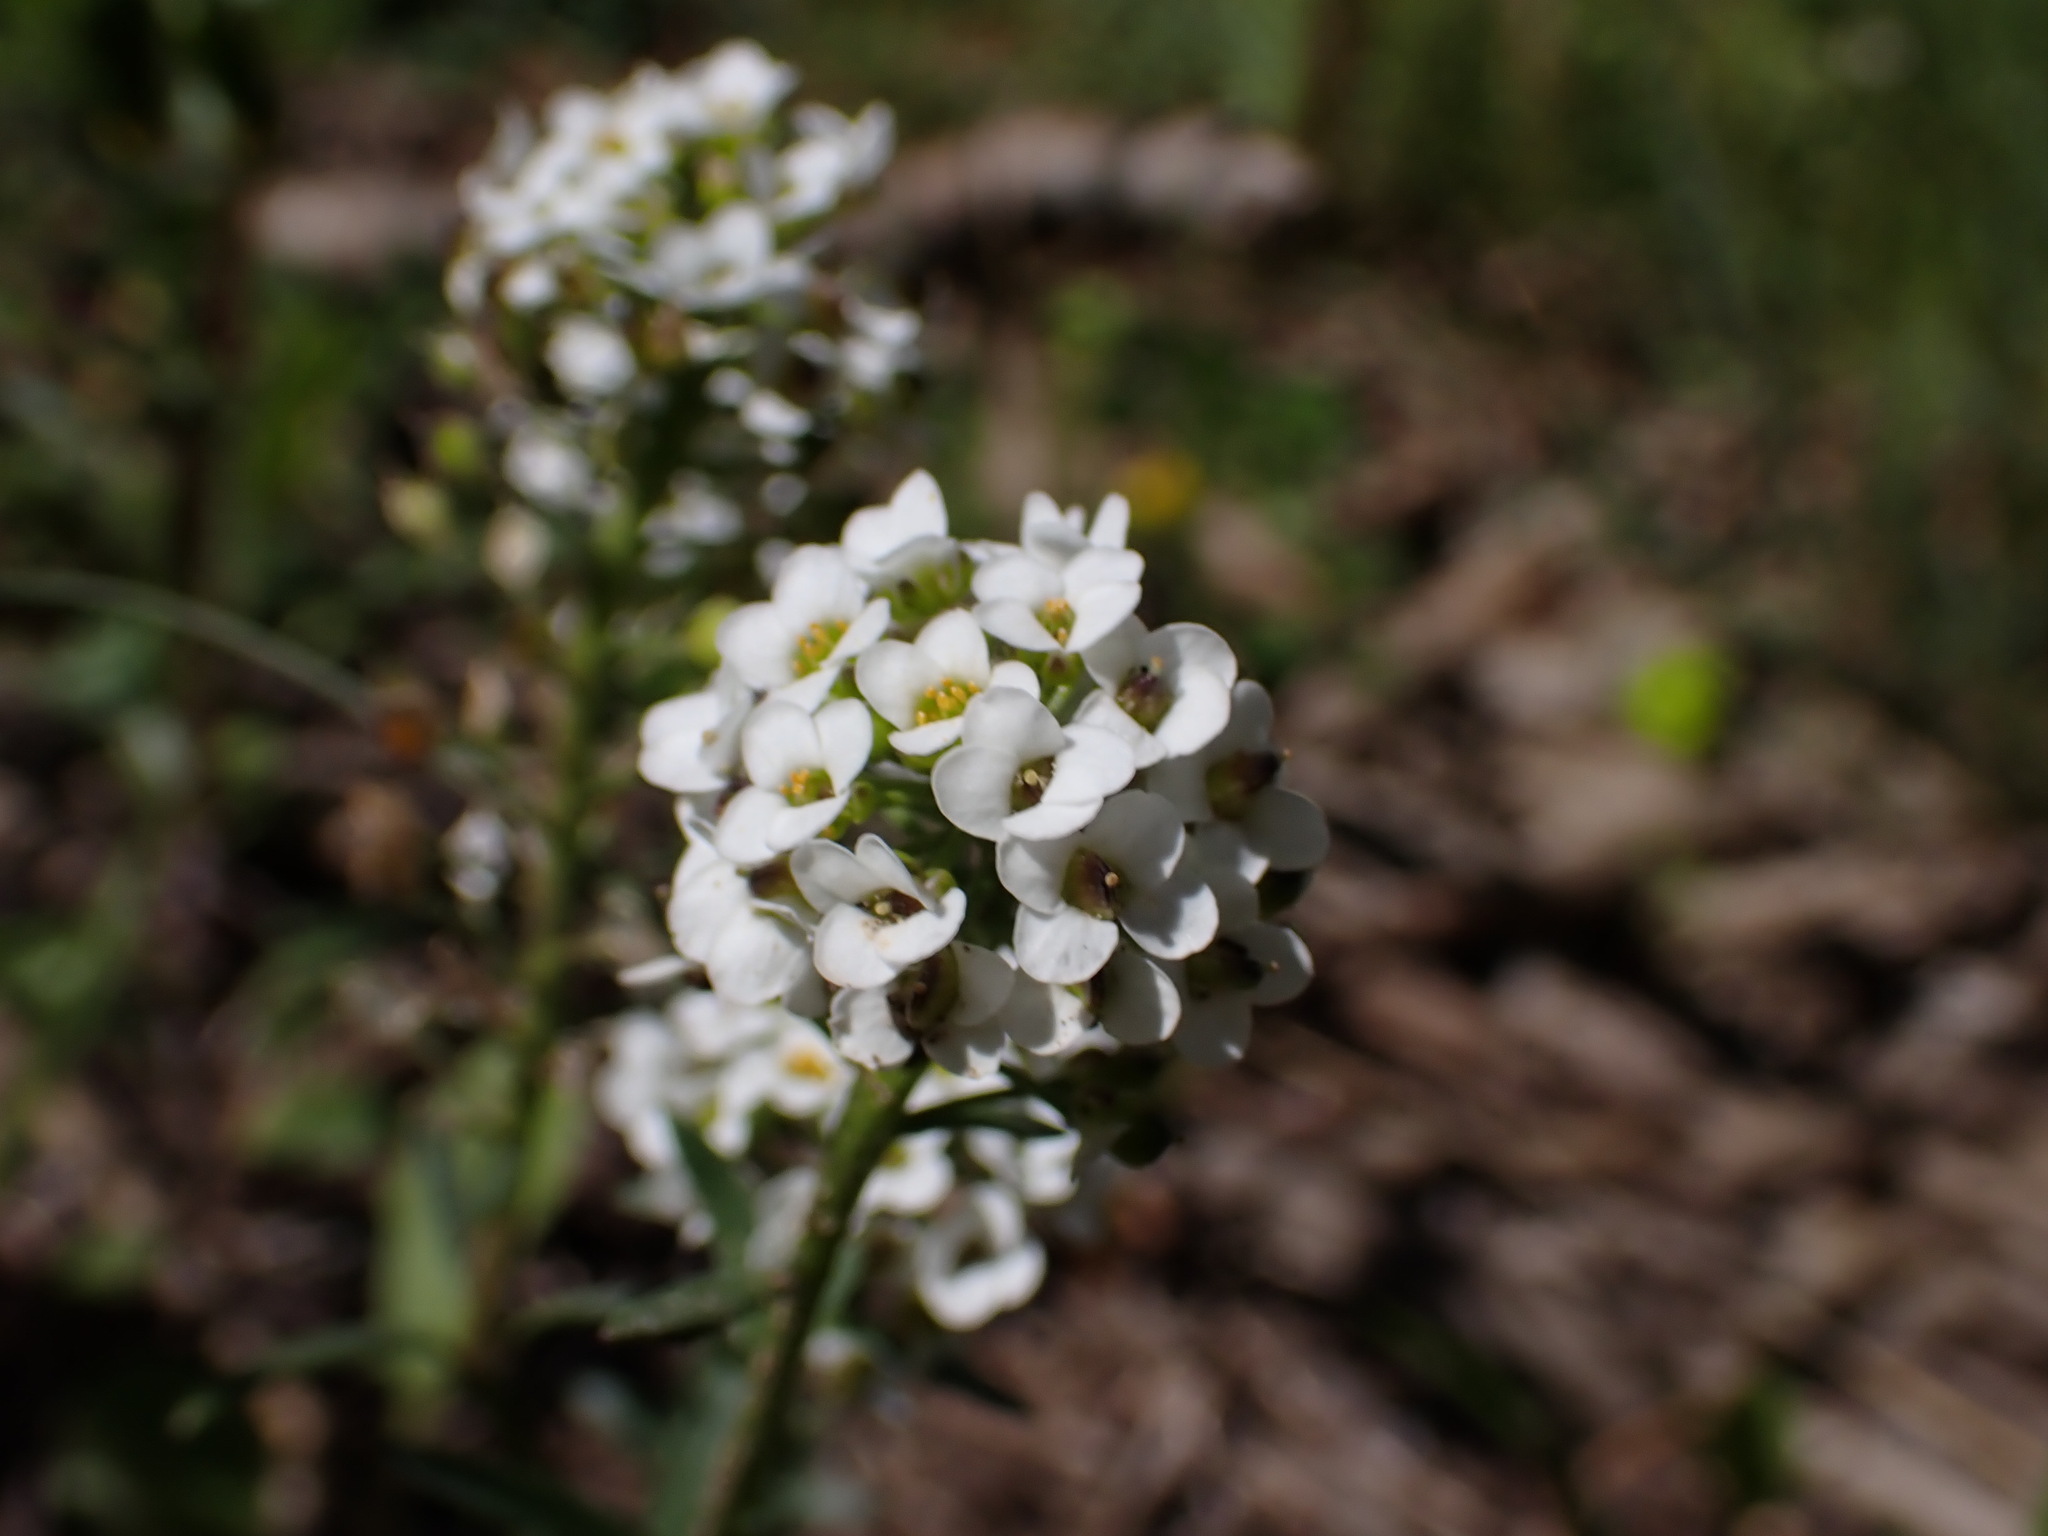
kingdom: Plantae
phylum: Tracheophyta
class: Magnoliopsida
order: Brassicales
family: Brassicaceae
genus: Lobularia
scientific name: Lobularia maritima
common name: Sweet alison
